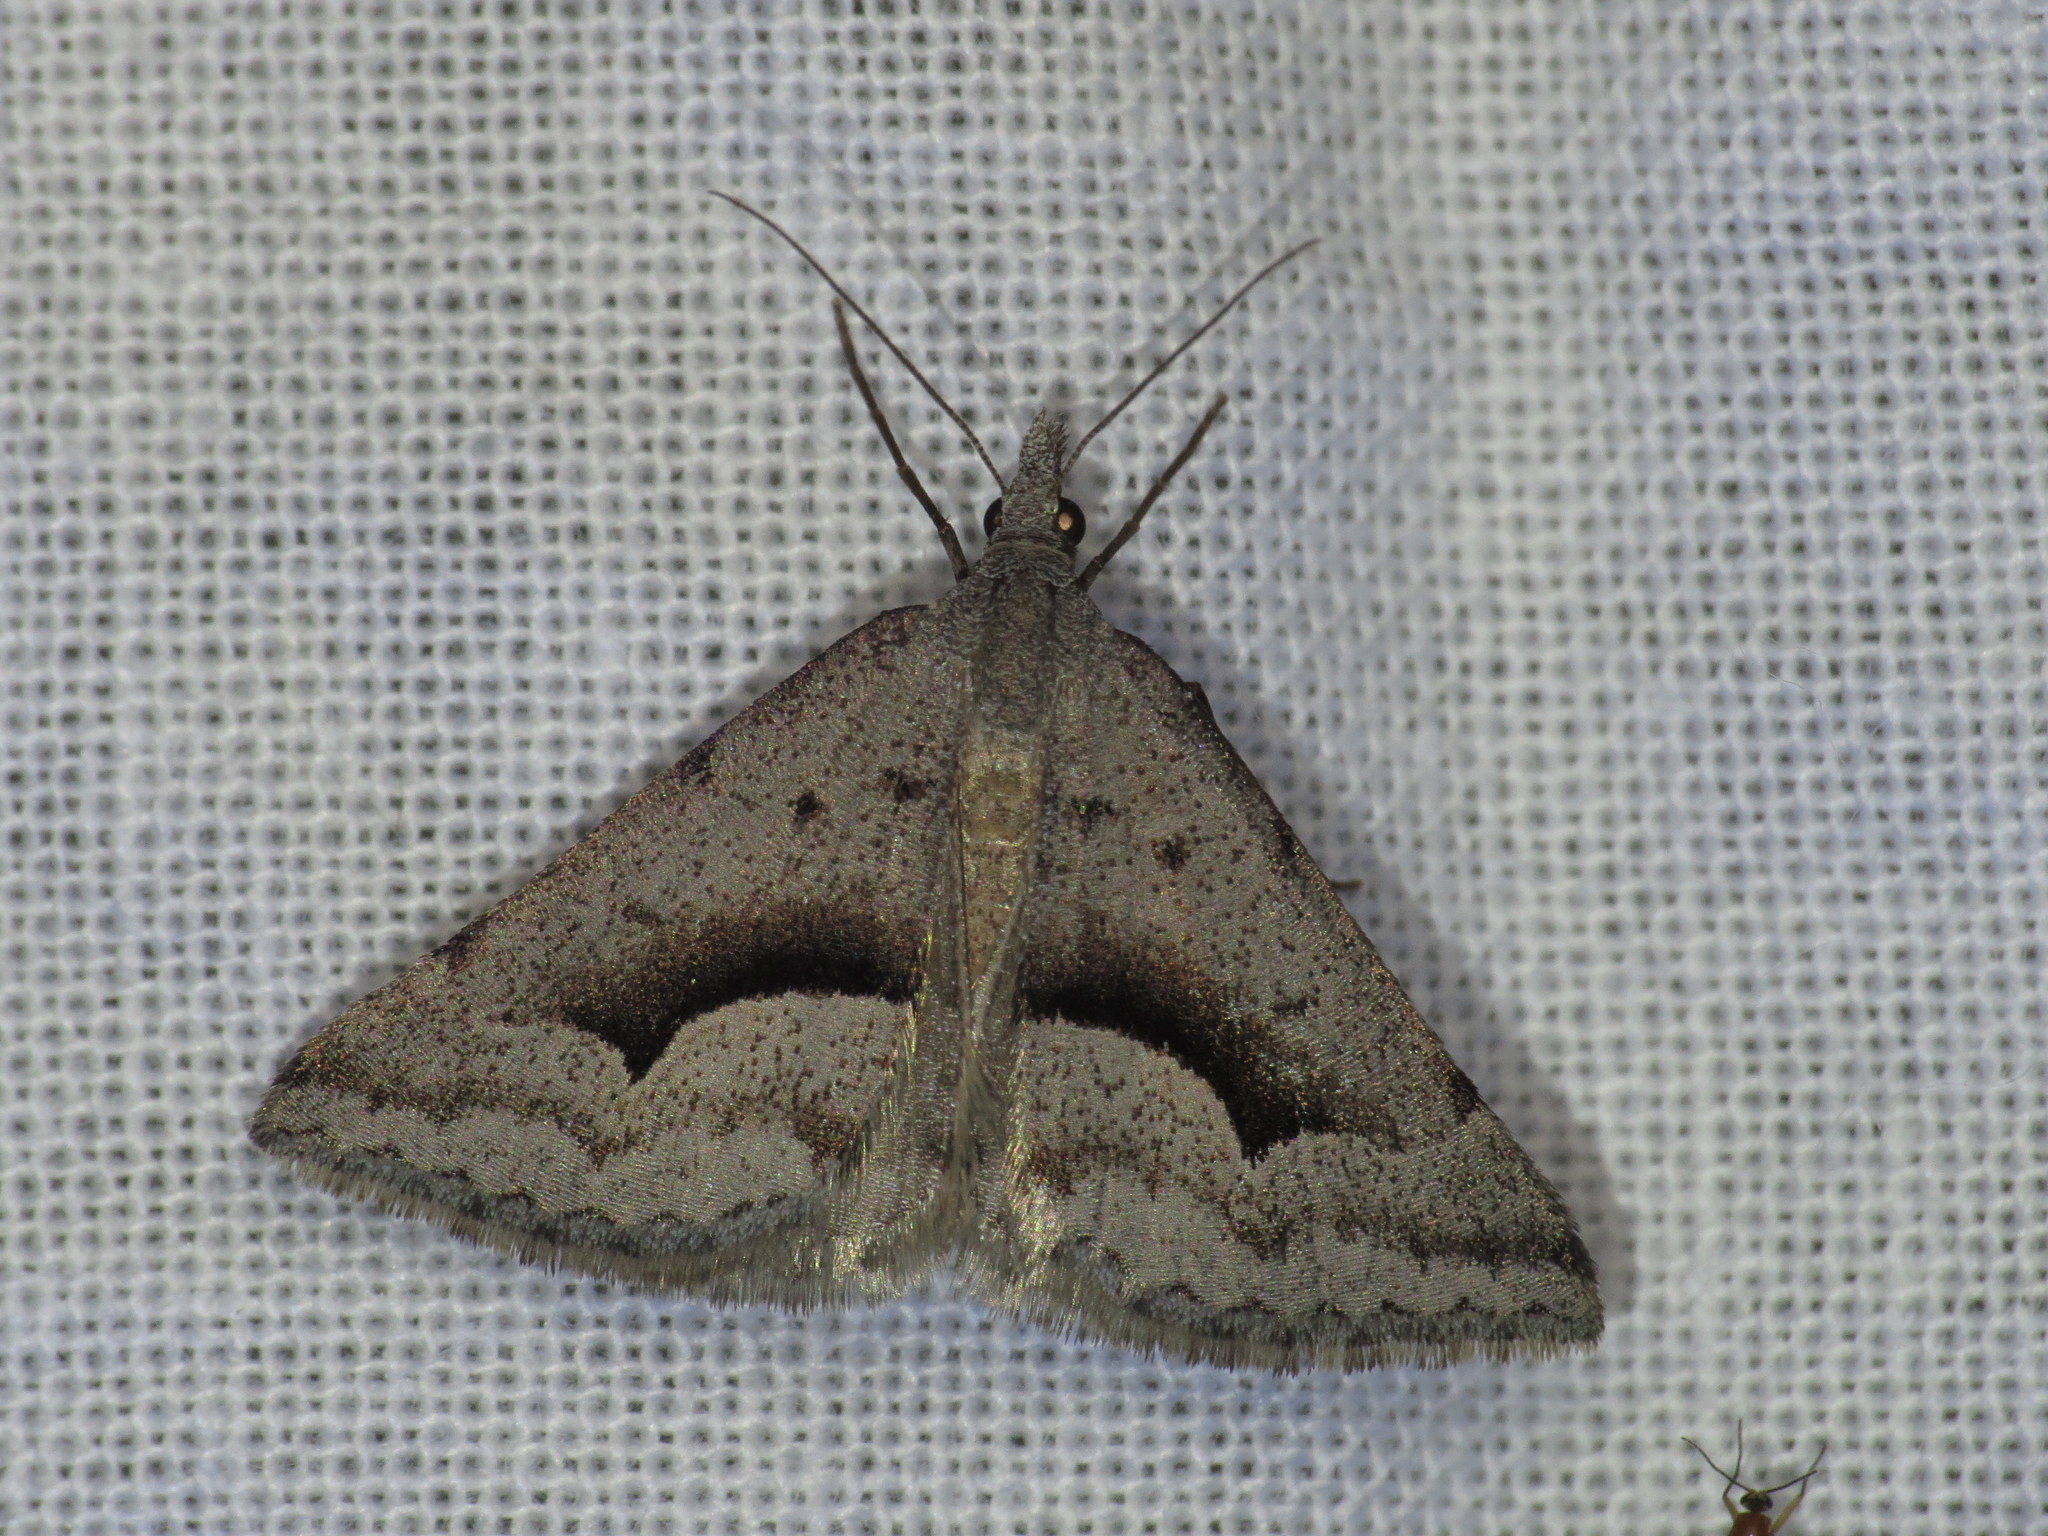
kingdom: Animalia
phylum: Arthropoda
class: Insecta
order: Lepidoptera
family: Geometridae
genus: Dichromodes
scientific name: Dichromodes euscia
